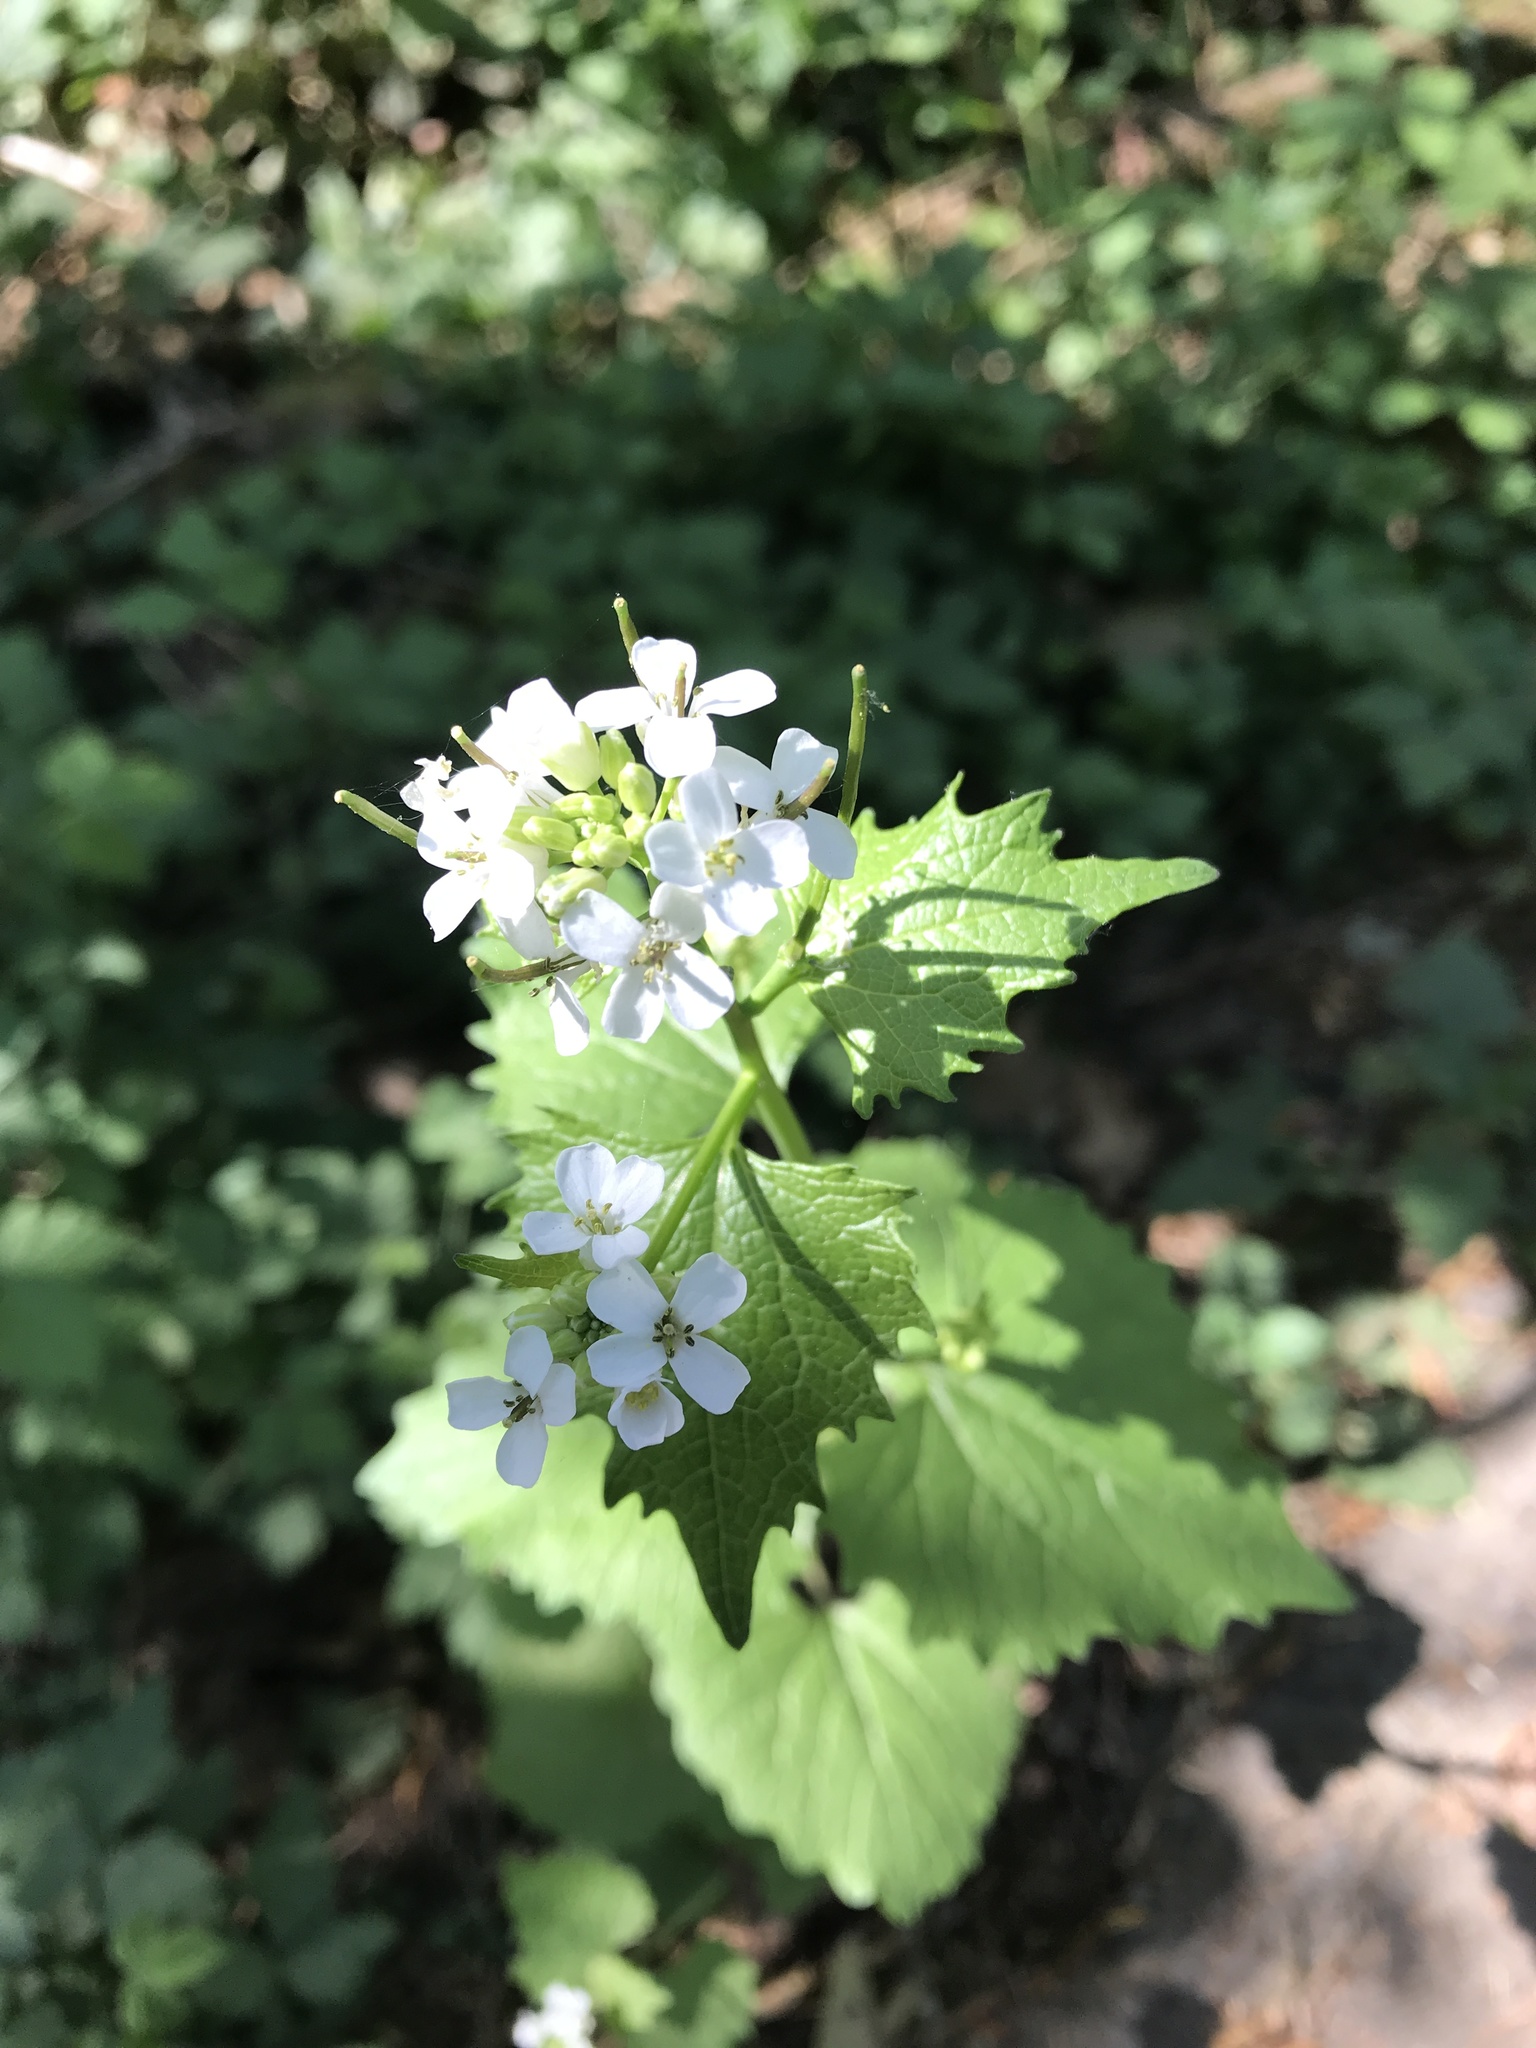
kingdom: Plantae
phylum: Tracheophyta
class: Magnoliopsida
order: Brassicales
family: Brassicaceae
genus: Alliaria
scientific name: Alliaria petiolata
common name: Garlic mustard
